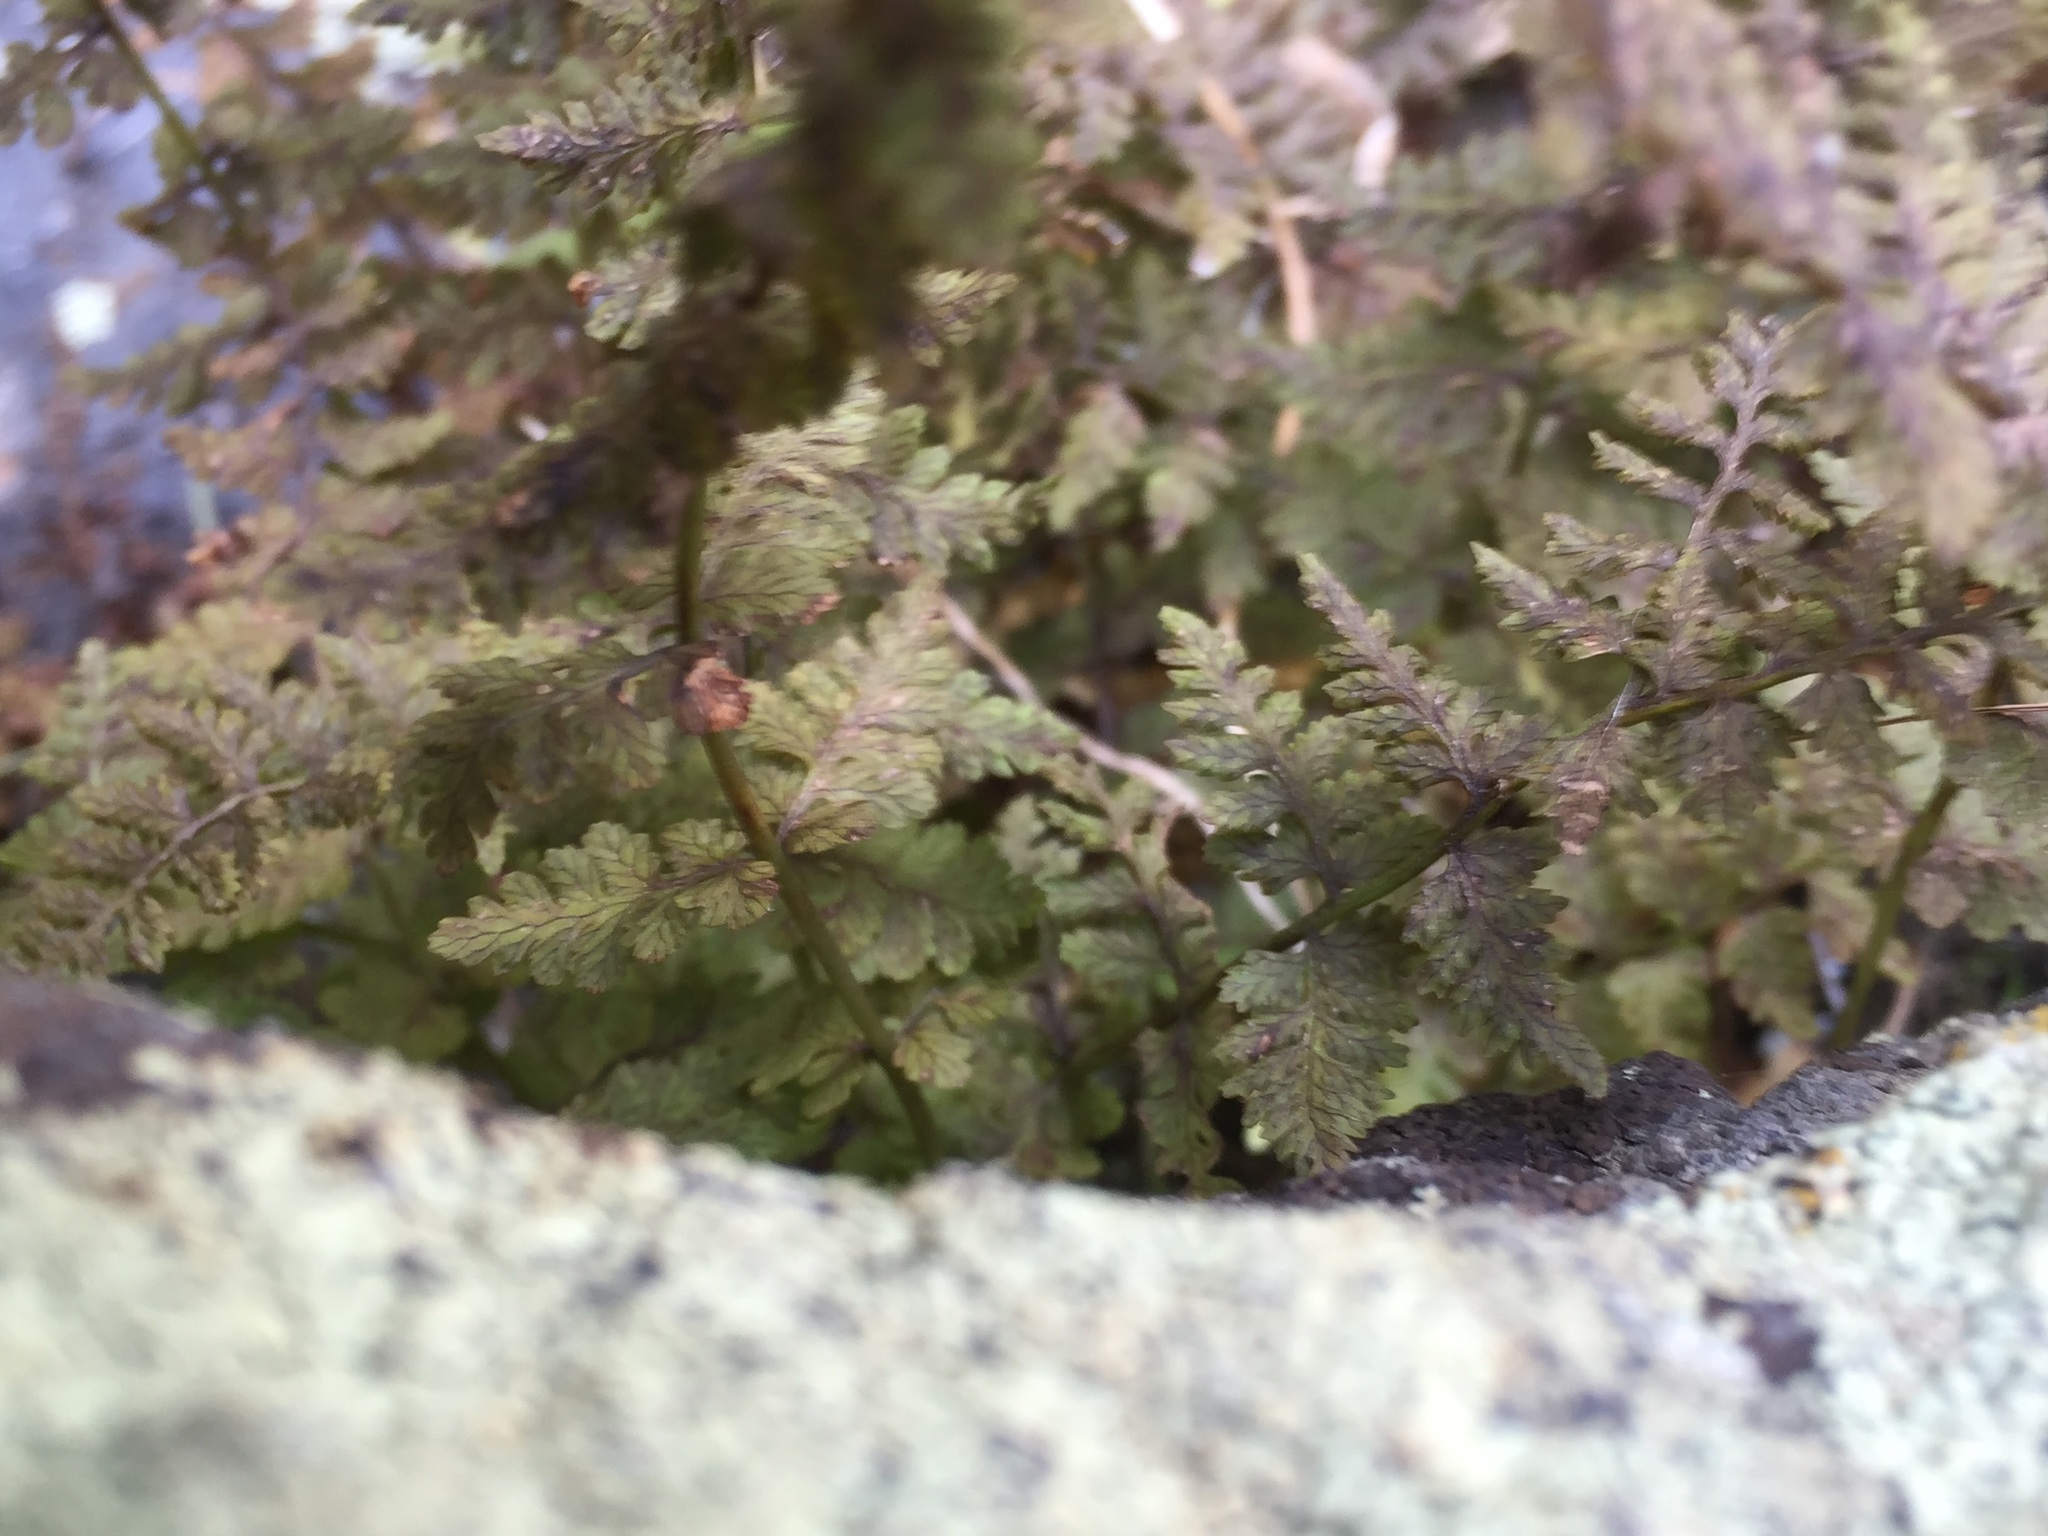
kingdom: Plantae
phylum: Tracheophyta
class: Polypodiopsida
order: Polypodiales
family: Cystopteridaceae
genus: Cystopteris
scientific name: Cystopteris fragilis
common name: Brittle bladder fern
